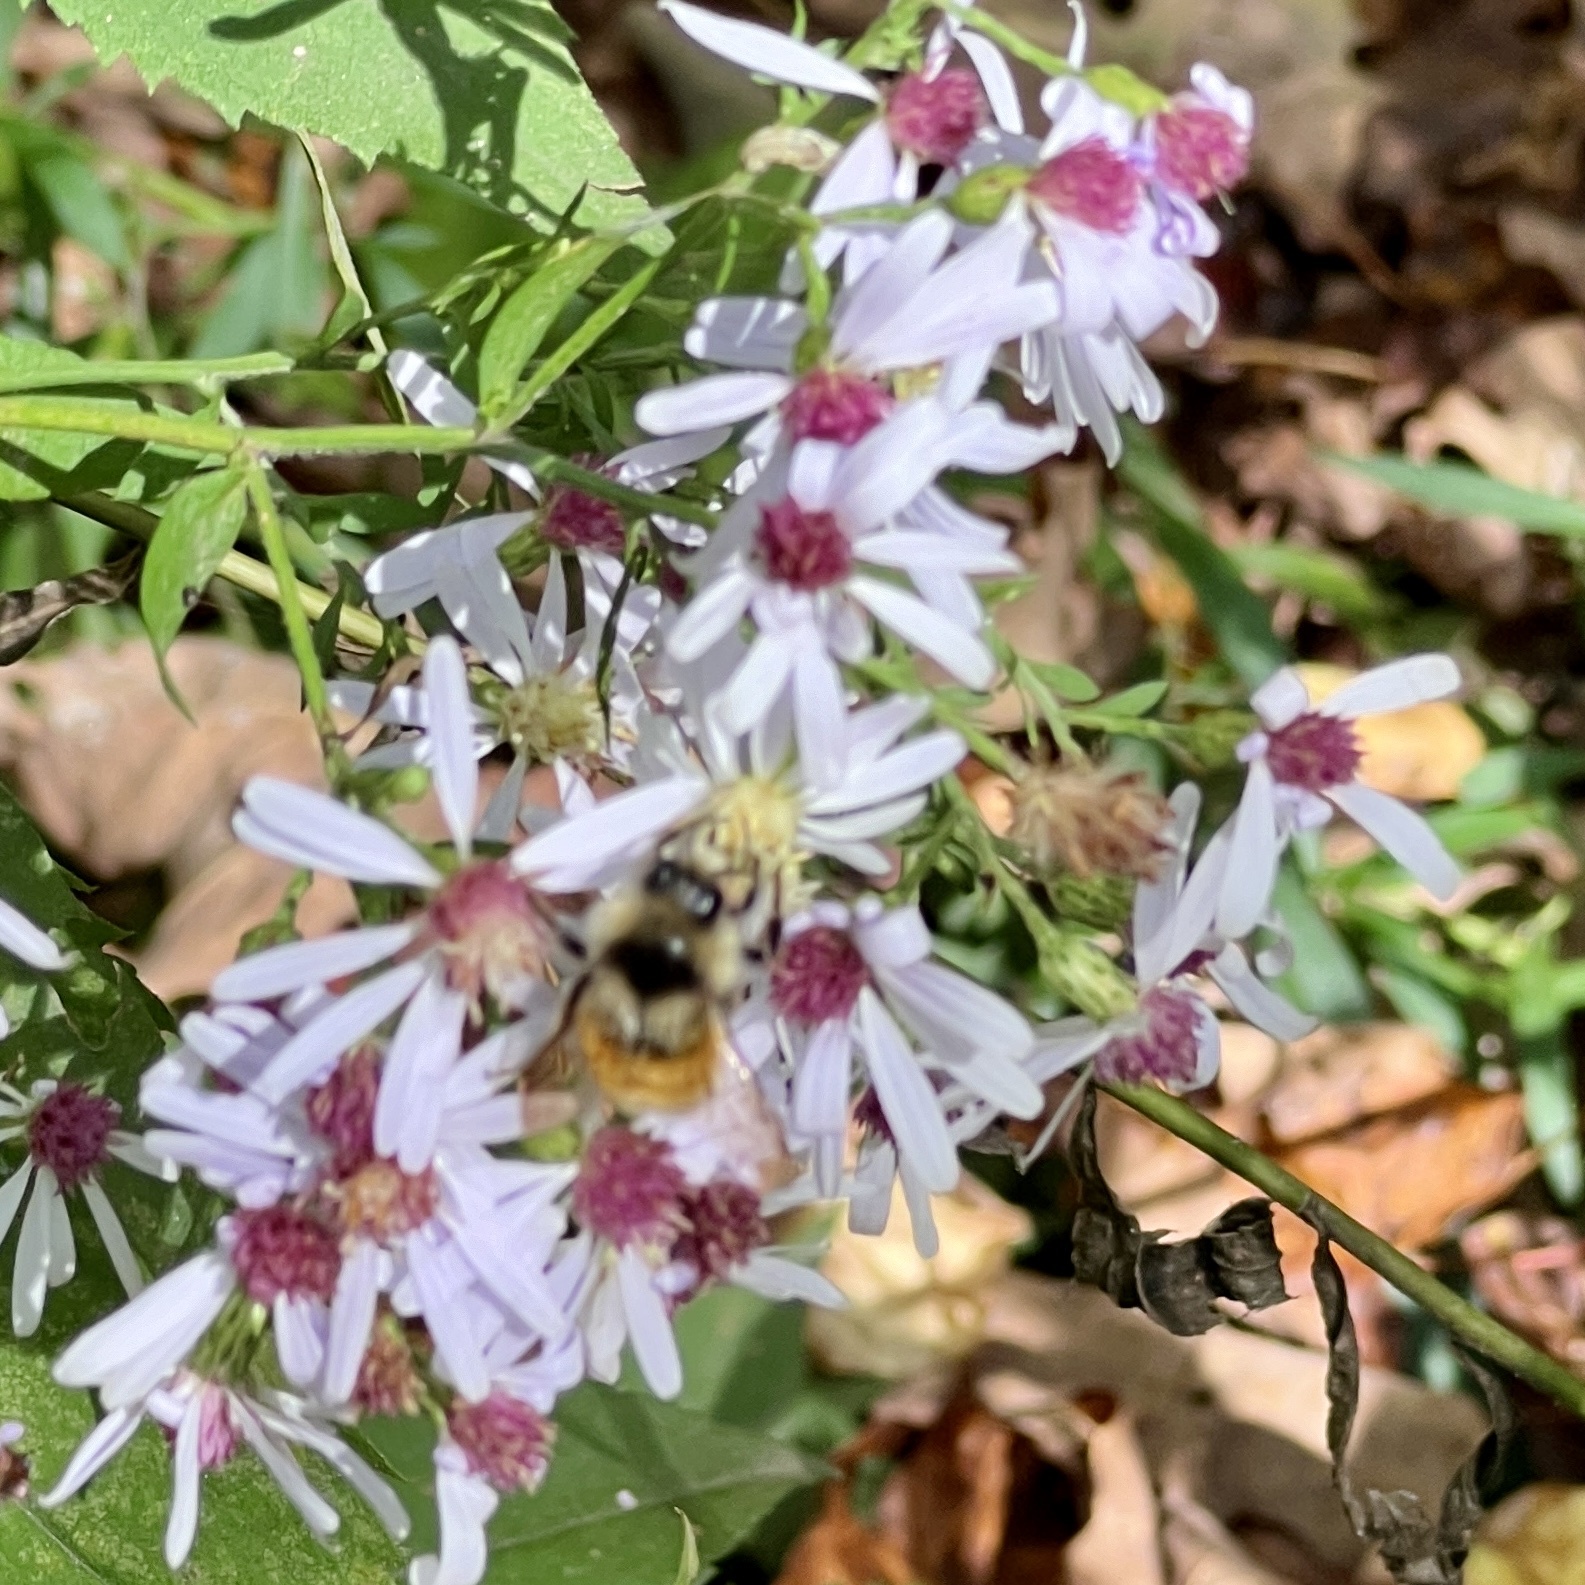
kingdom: Animalia
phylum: Arthropoda
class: Insecta
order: Hymenoptera
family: Apidae
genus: Bombus
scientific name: Bombus ternarius
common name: Tri-colored bumble bee
